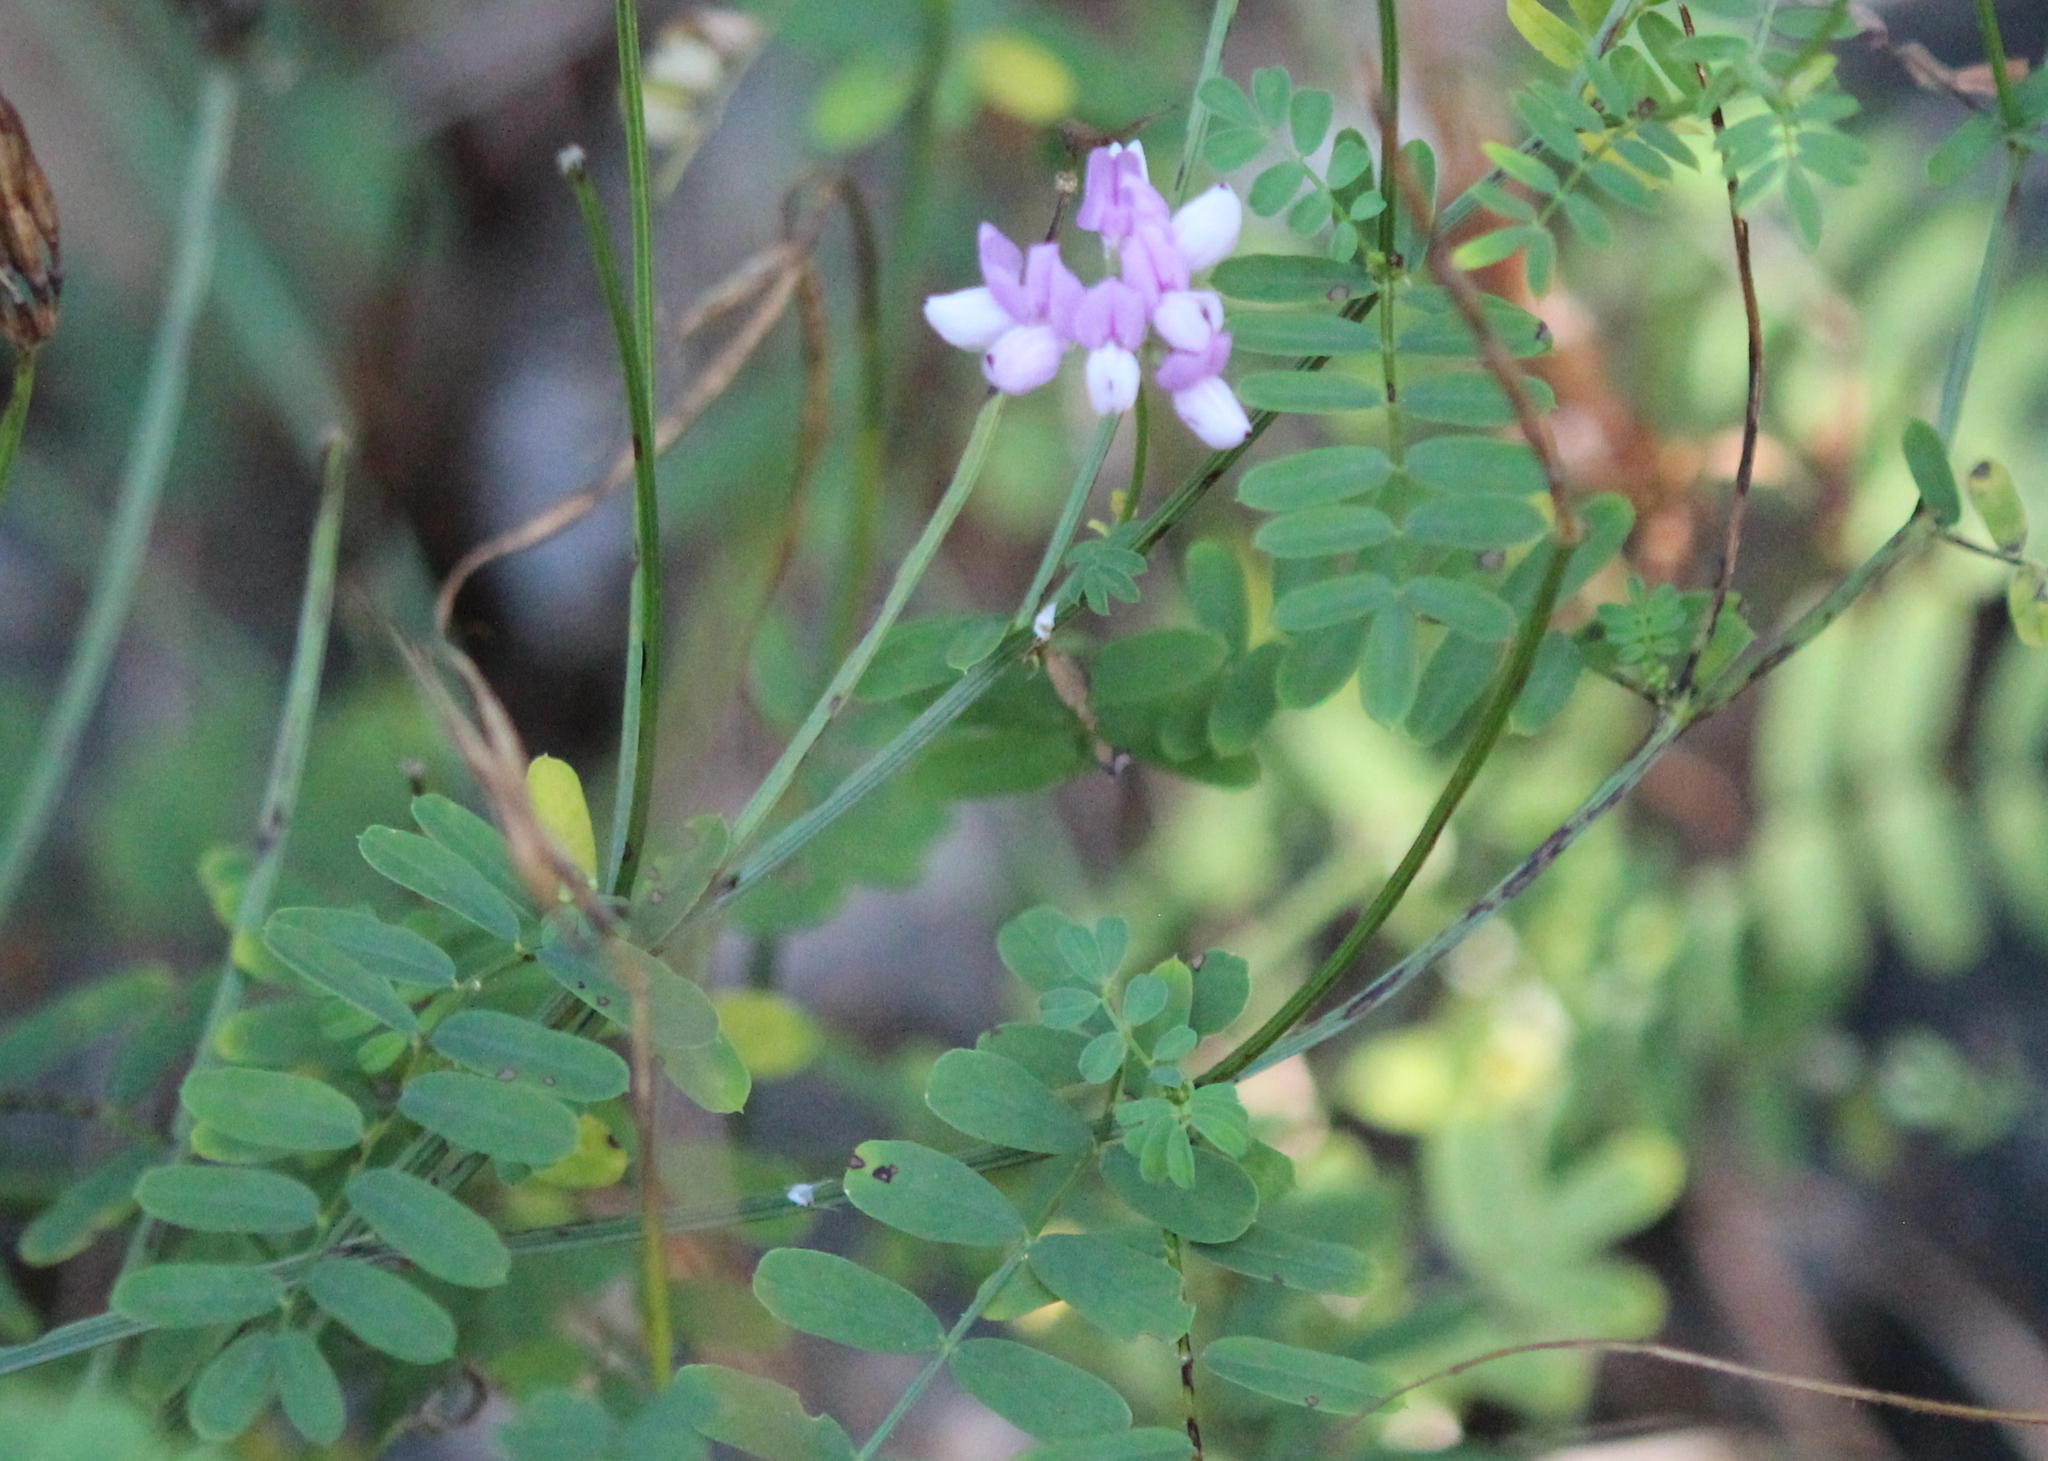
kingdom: Plantae
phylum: Tracheophyta
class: Magnoliopsida
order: Fabales
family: Fabaceae
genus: Coronilla
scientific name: Coronilla varia
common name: Crownvetch
